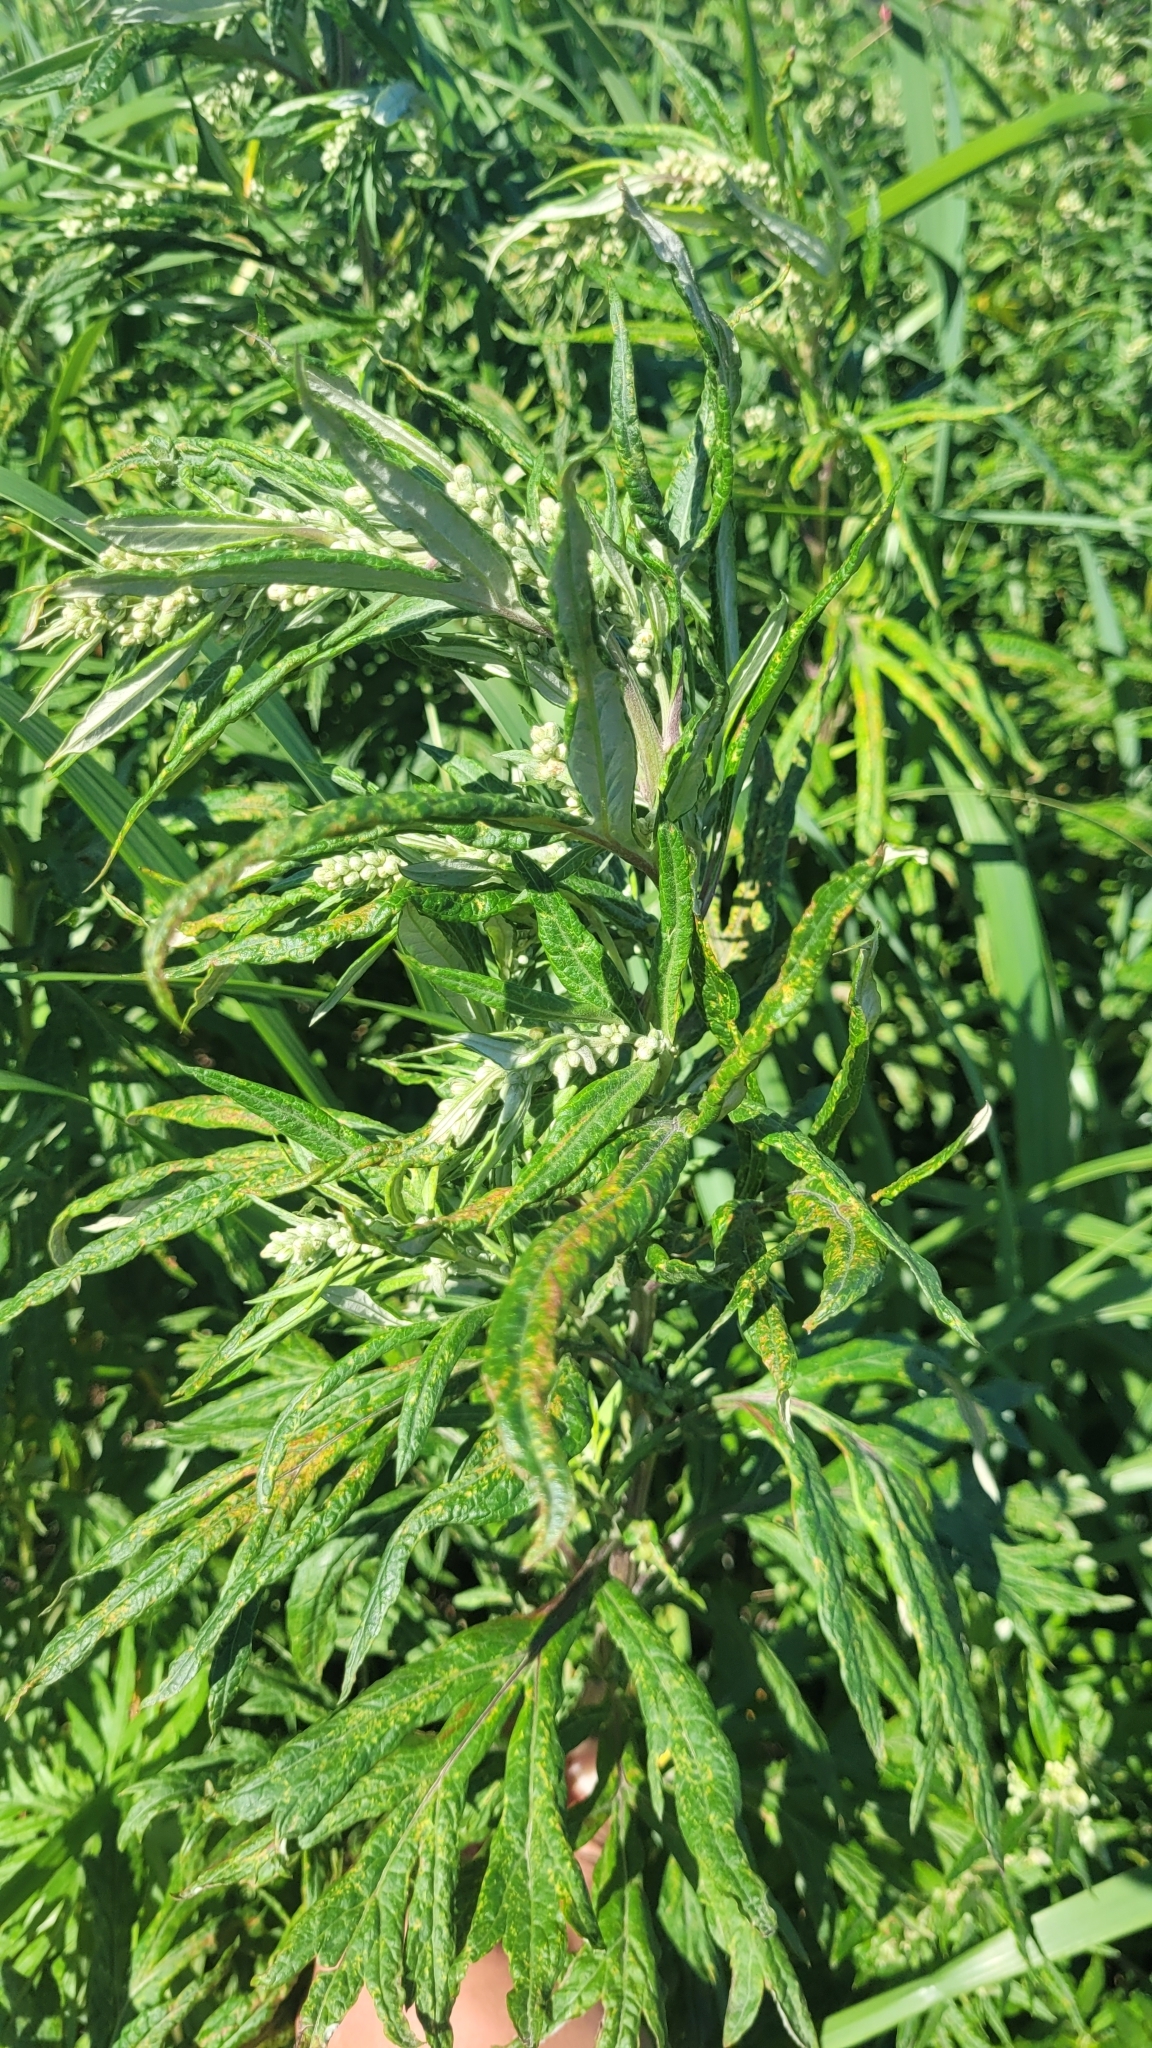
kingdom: Plantae
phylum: Tracheophyta
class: Magnoliopsida
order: Asterales
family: Asteraceae
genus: Artemisia
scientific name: Artemisia vulgaris
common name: Mugwort
